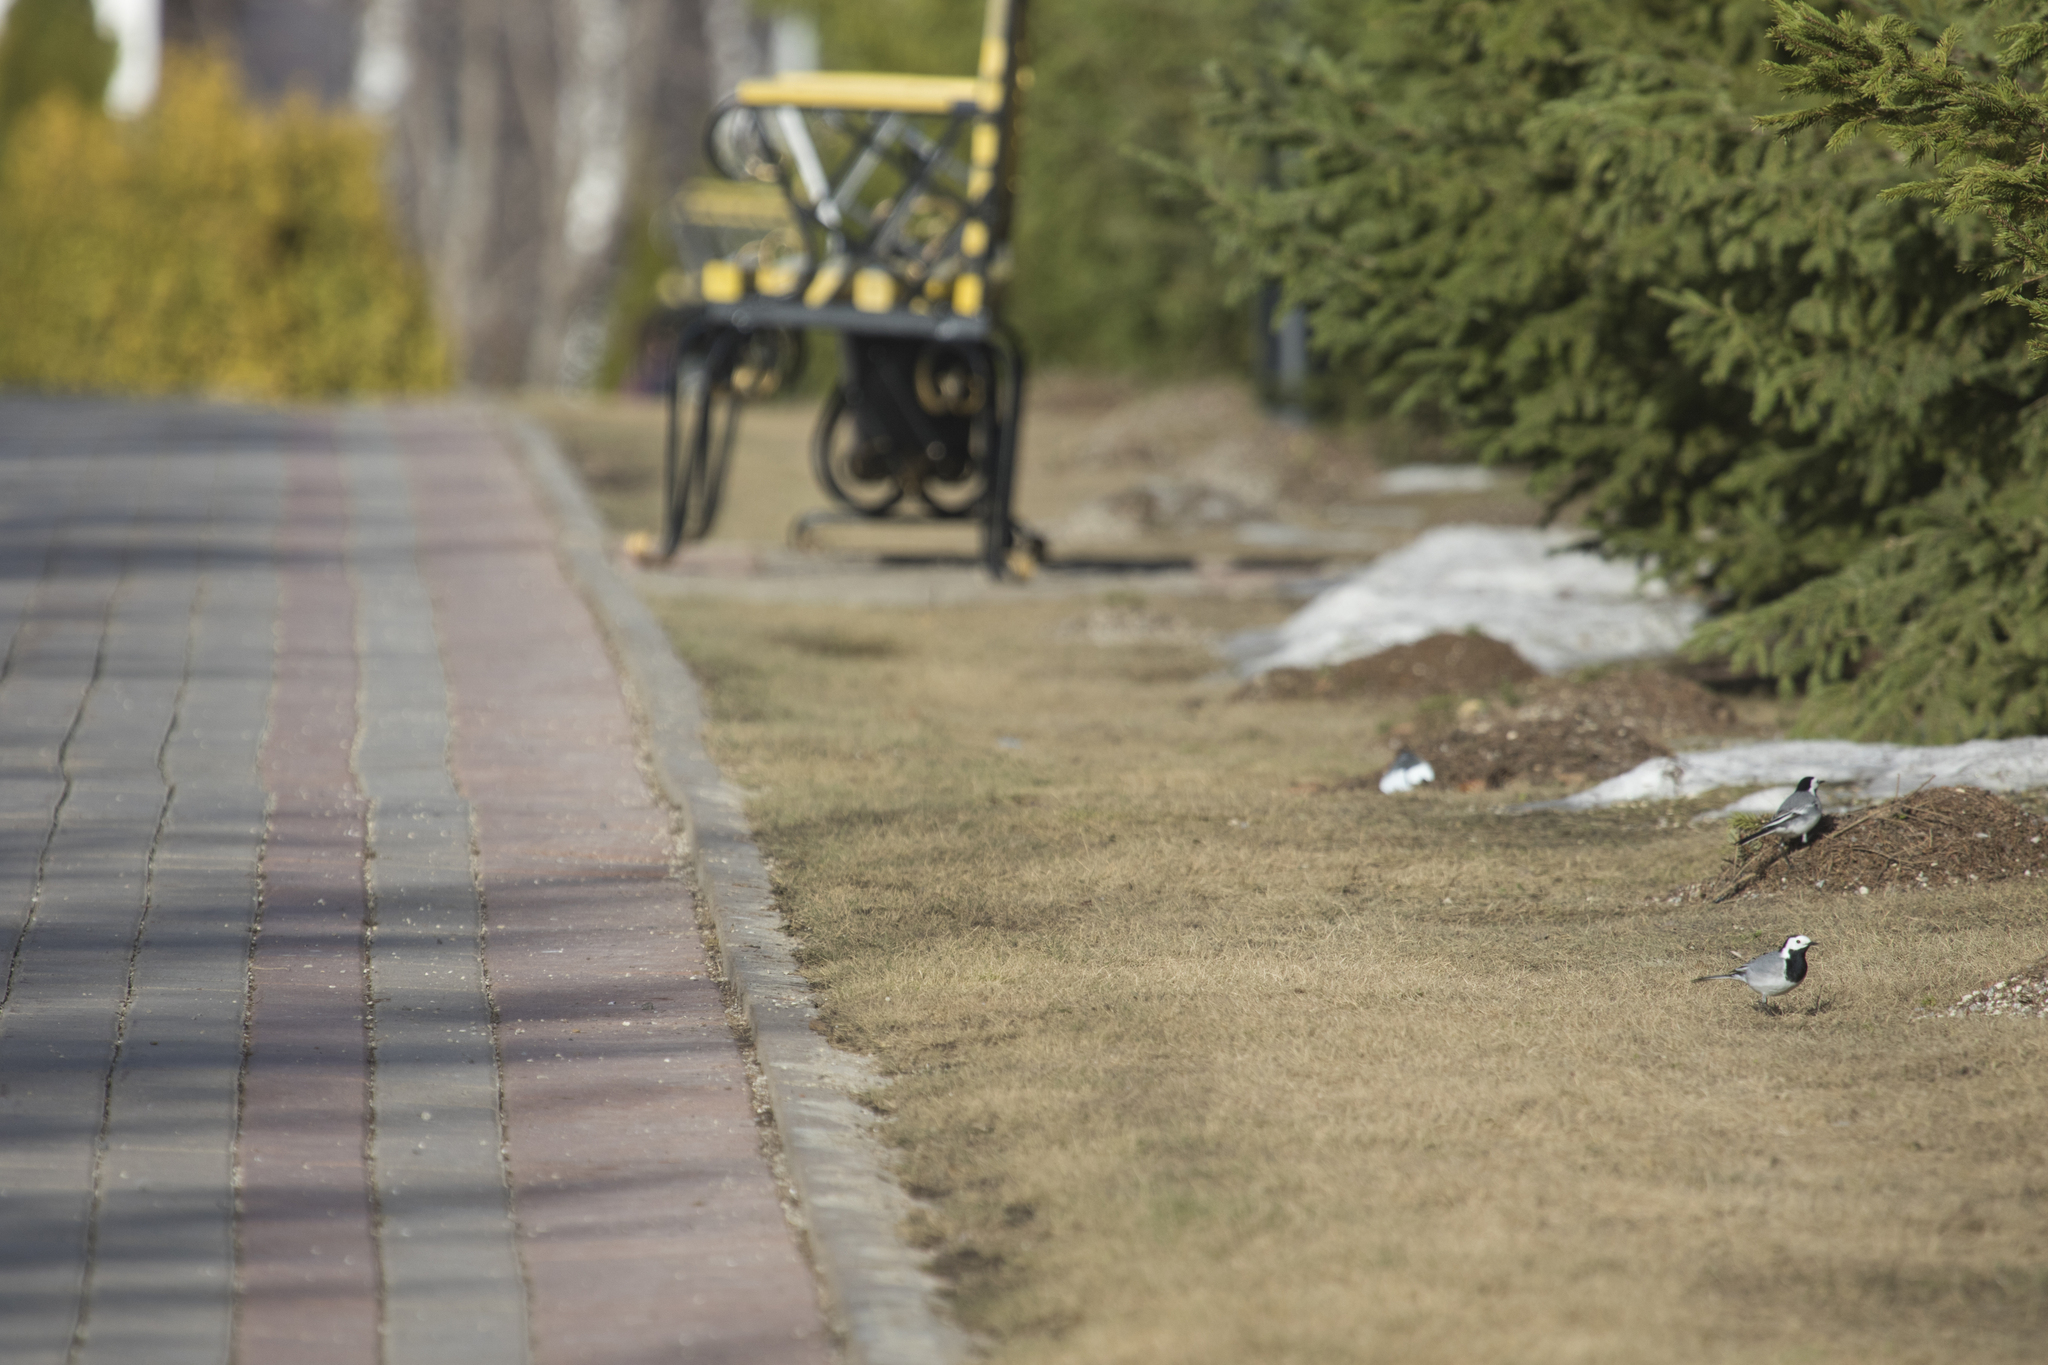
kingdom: Animalia
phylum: Chordata
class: Aves
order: Passeriformes
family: Motacillidae
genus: Motacilla
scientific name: Motacilla alba
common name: White wagtail
